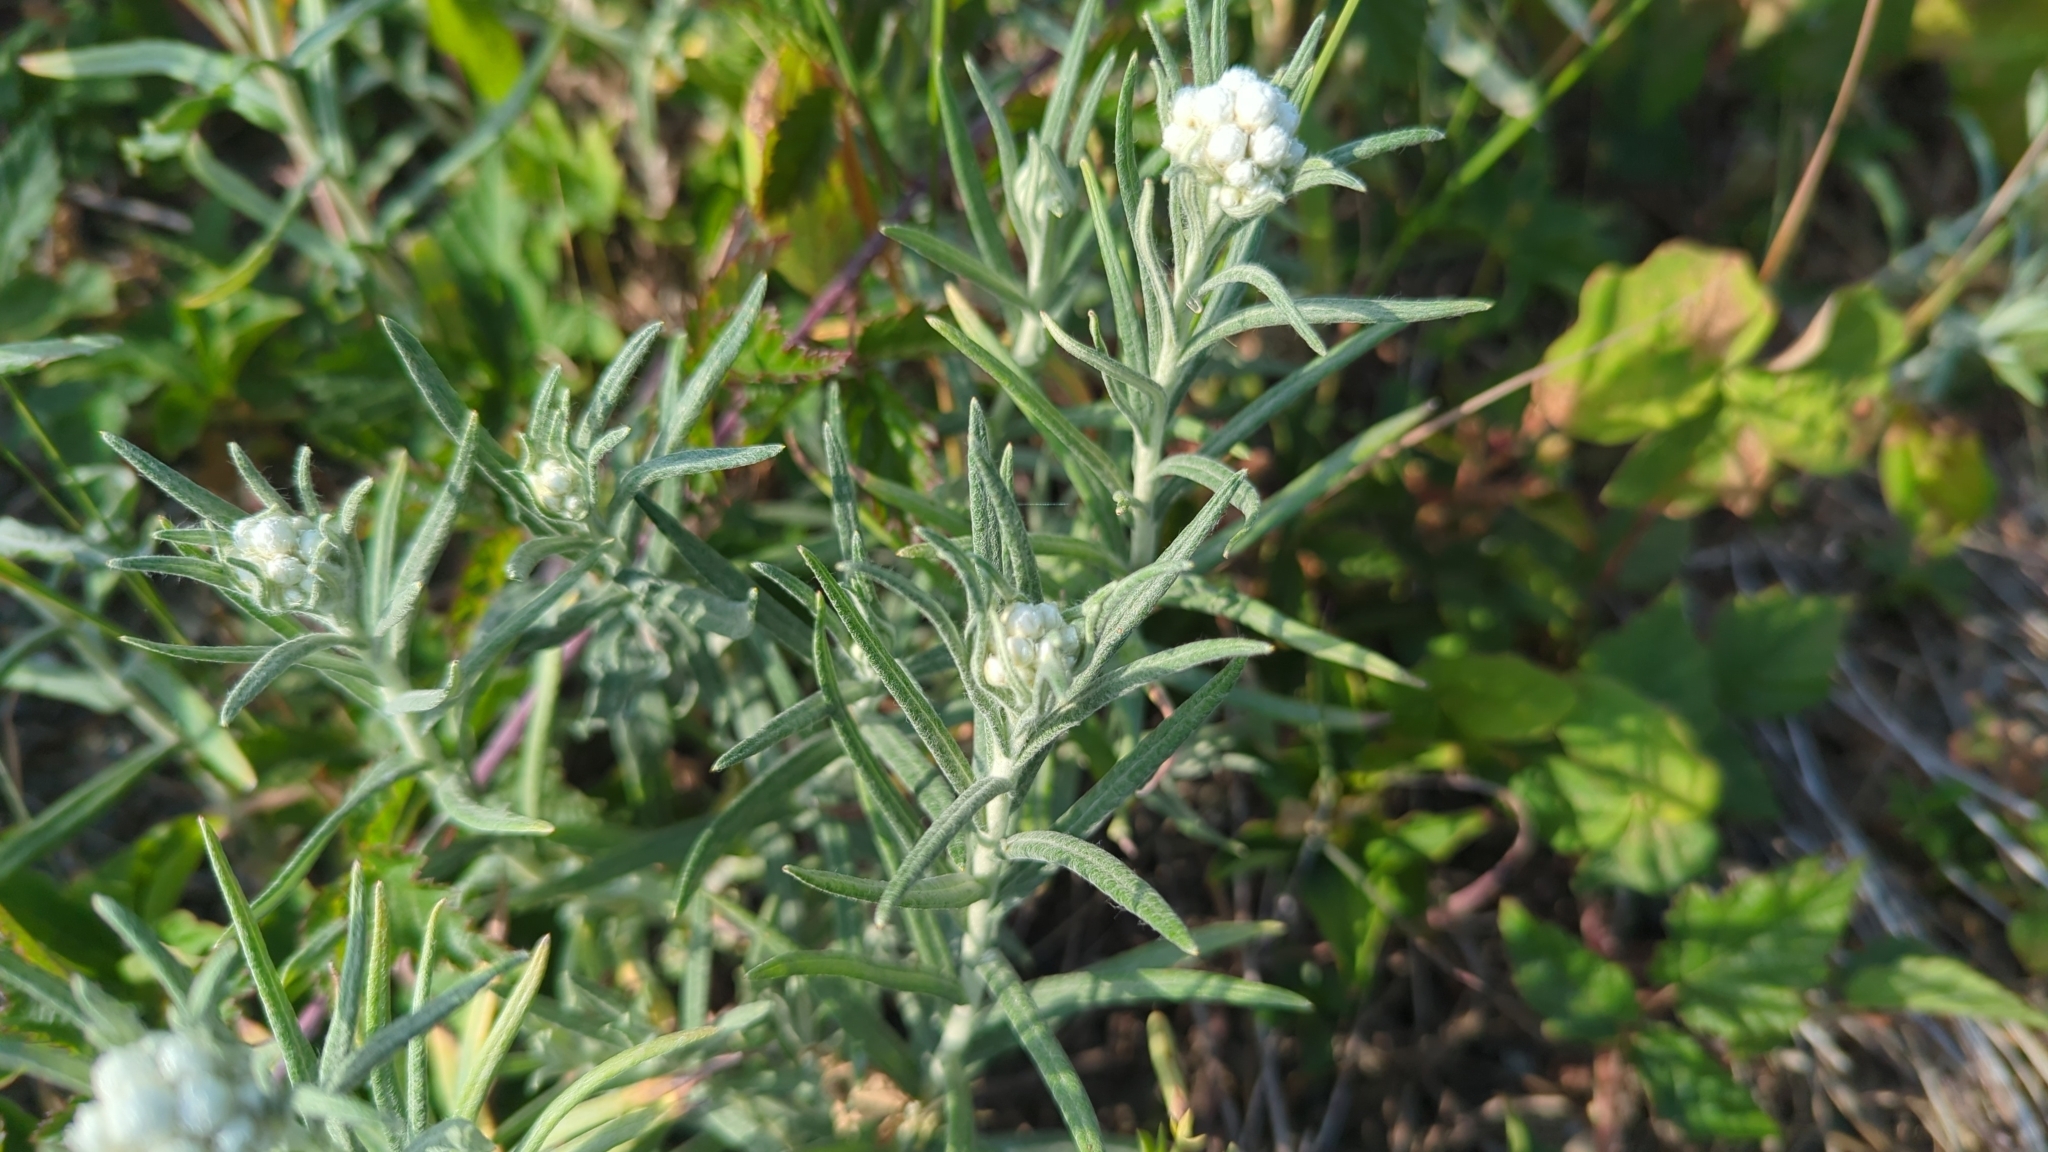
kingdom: Plantae
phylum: Tracheophyta
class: Magnoliopsida
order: Asterales
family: Asteraceae
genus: Anaphalis
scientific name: Anaphalis margaritacea
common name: Pearly everlasting
